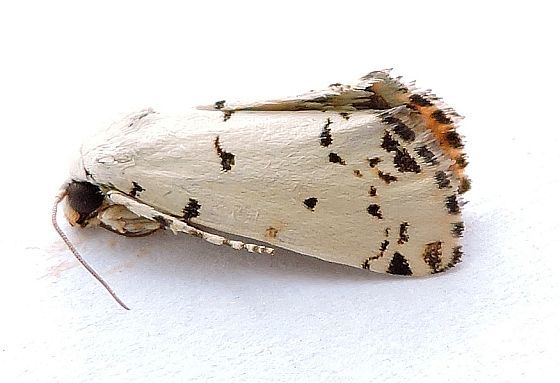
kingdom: Animalia
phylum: Arthropoda
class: Insecta
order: Lepidoptera
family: Noctuidae
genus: Grotella
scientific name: Grotella soror
